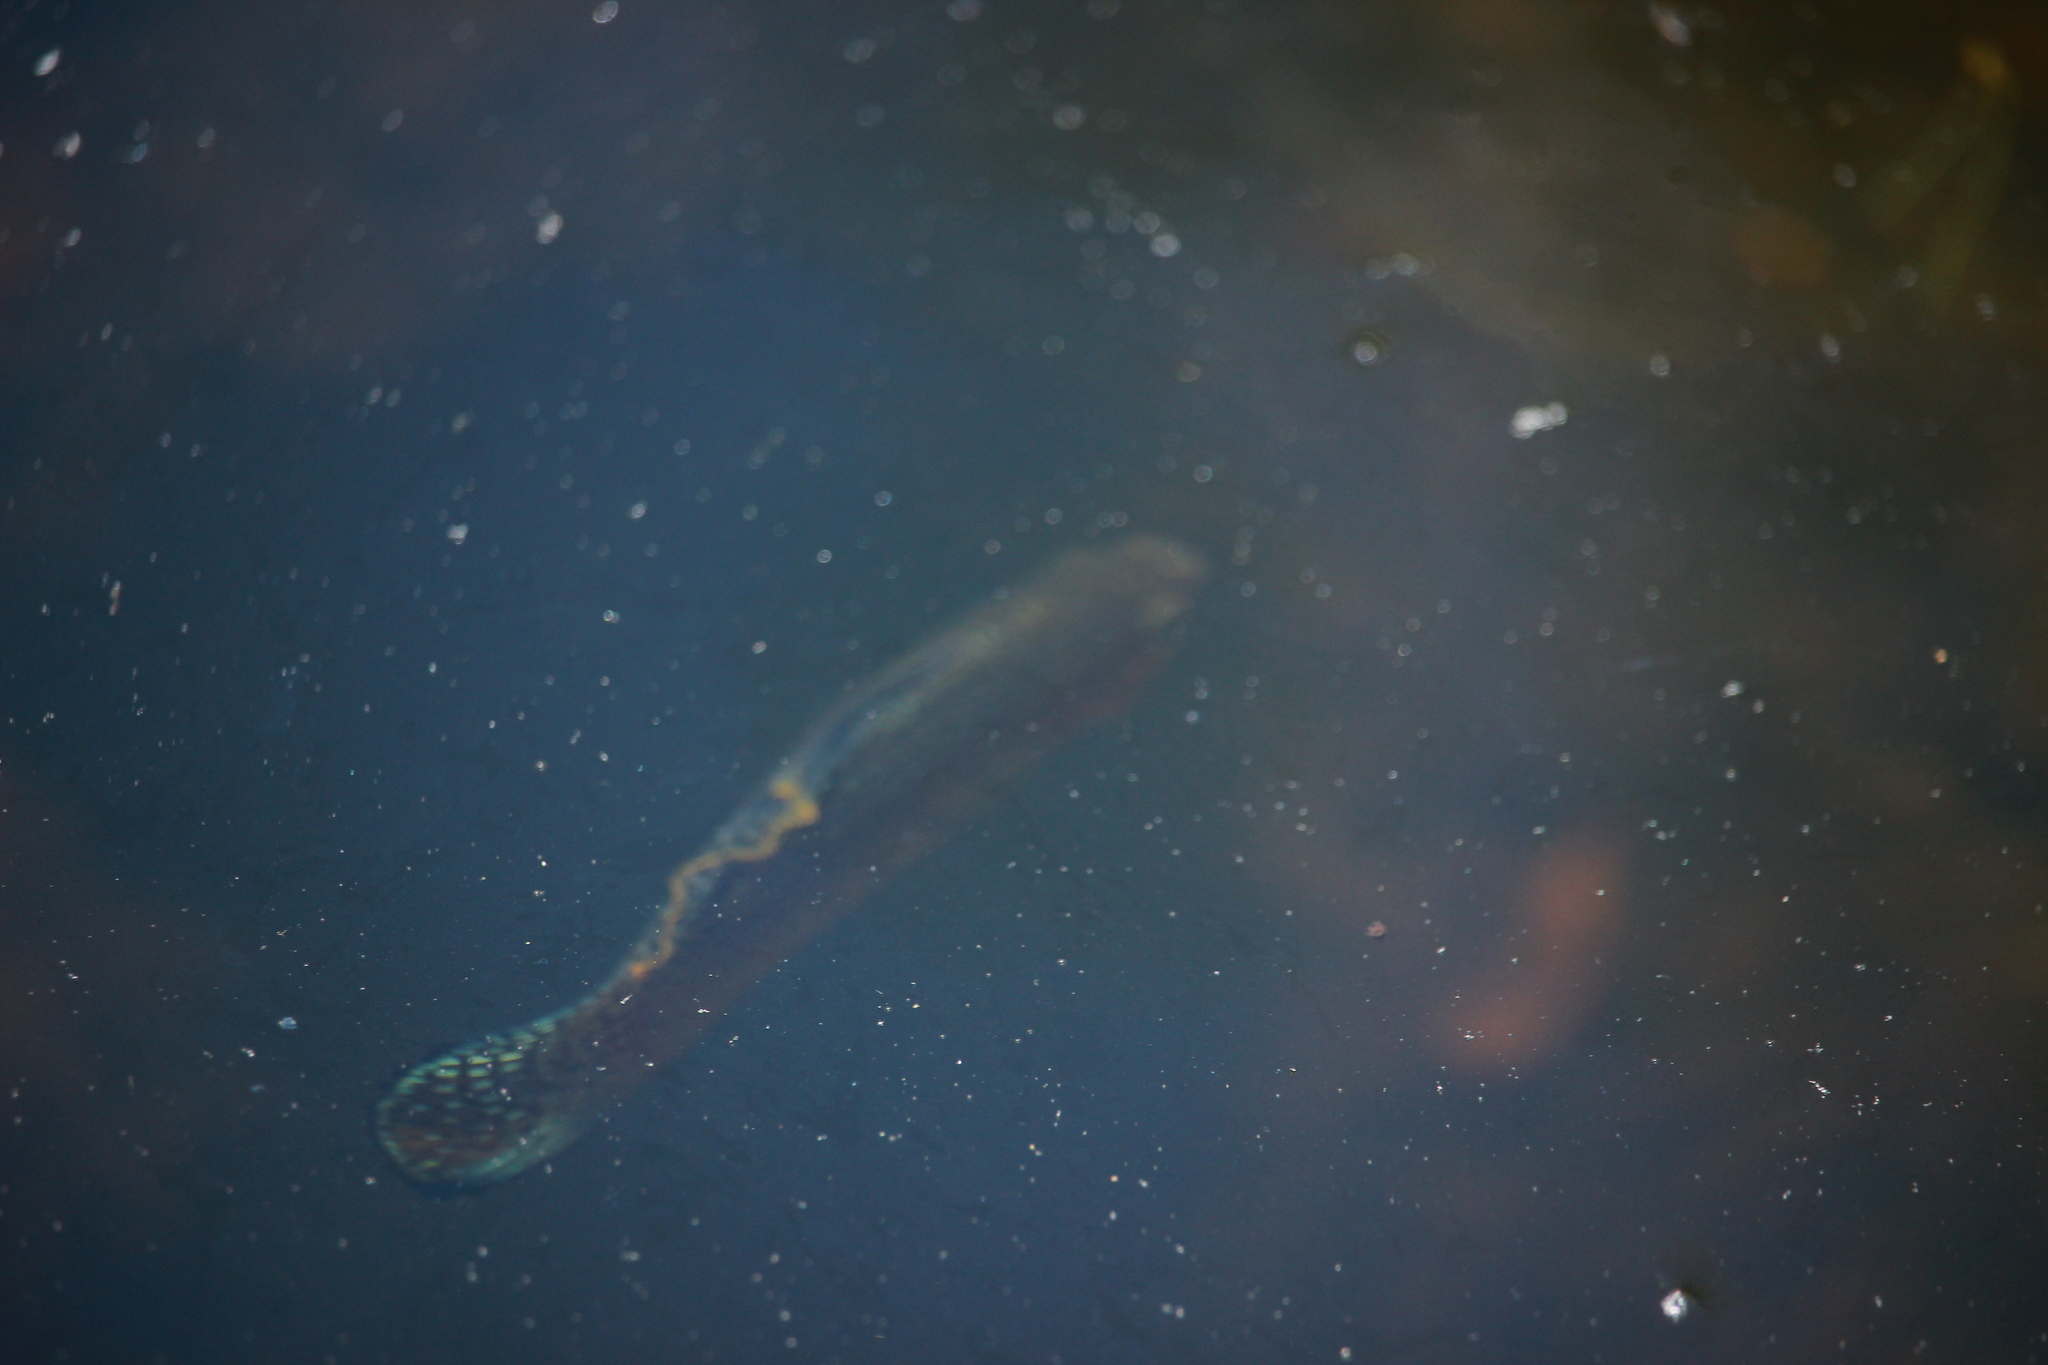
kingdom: Animalia
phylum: Chordata
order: Cyprinodontiformes
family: Poeciliidae
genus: Poecilia
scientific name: Poecilia latipinna
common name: Sailfin molly
